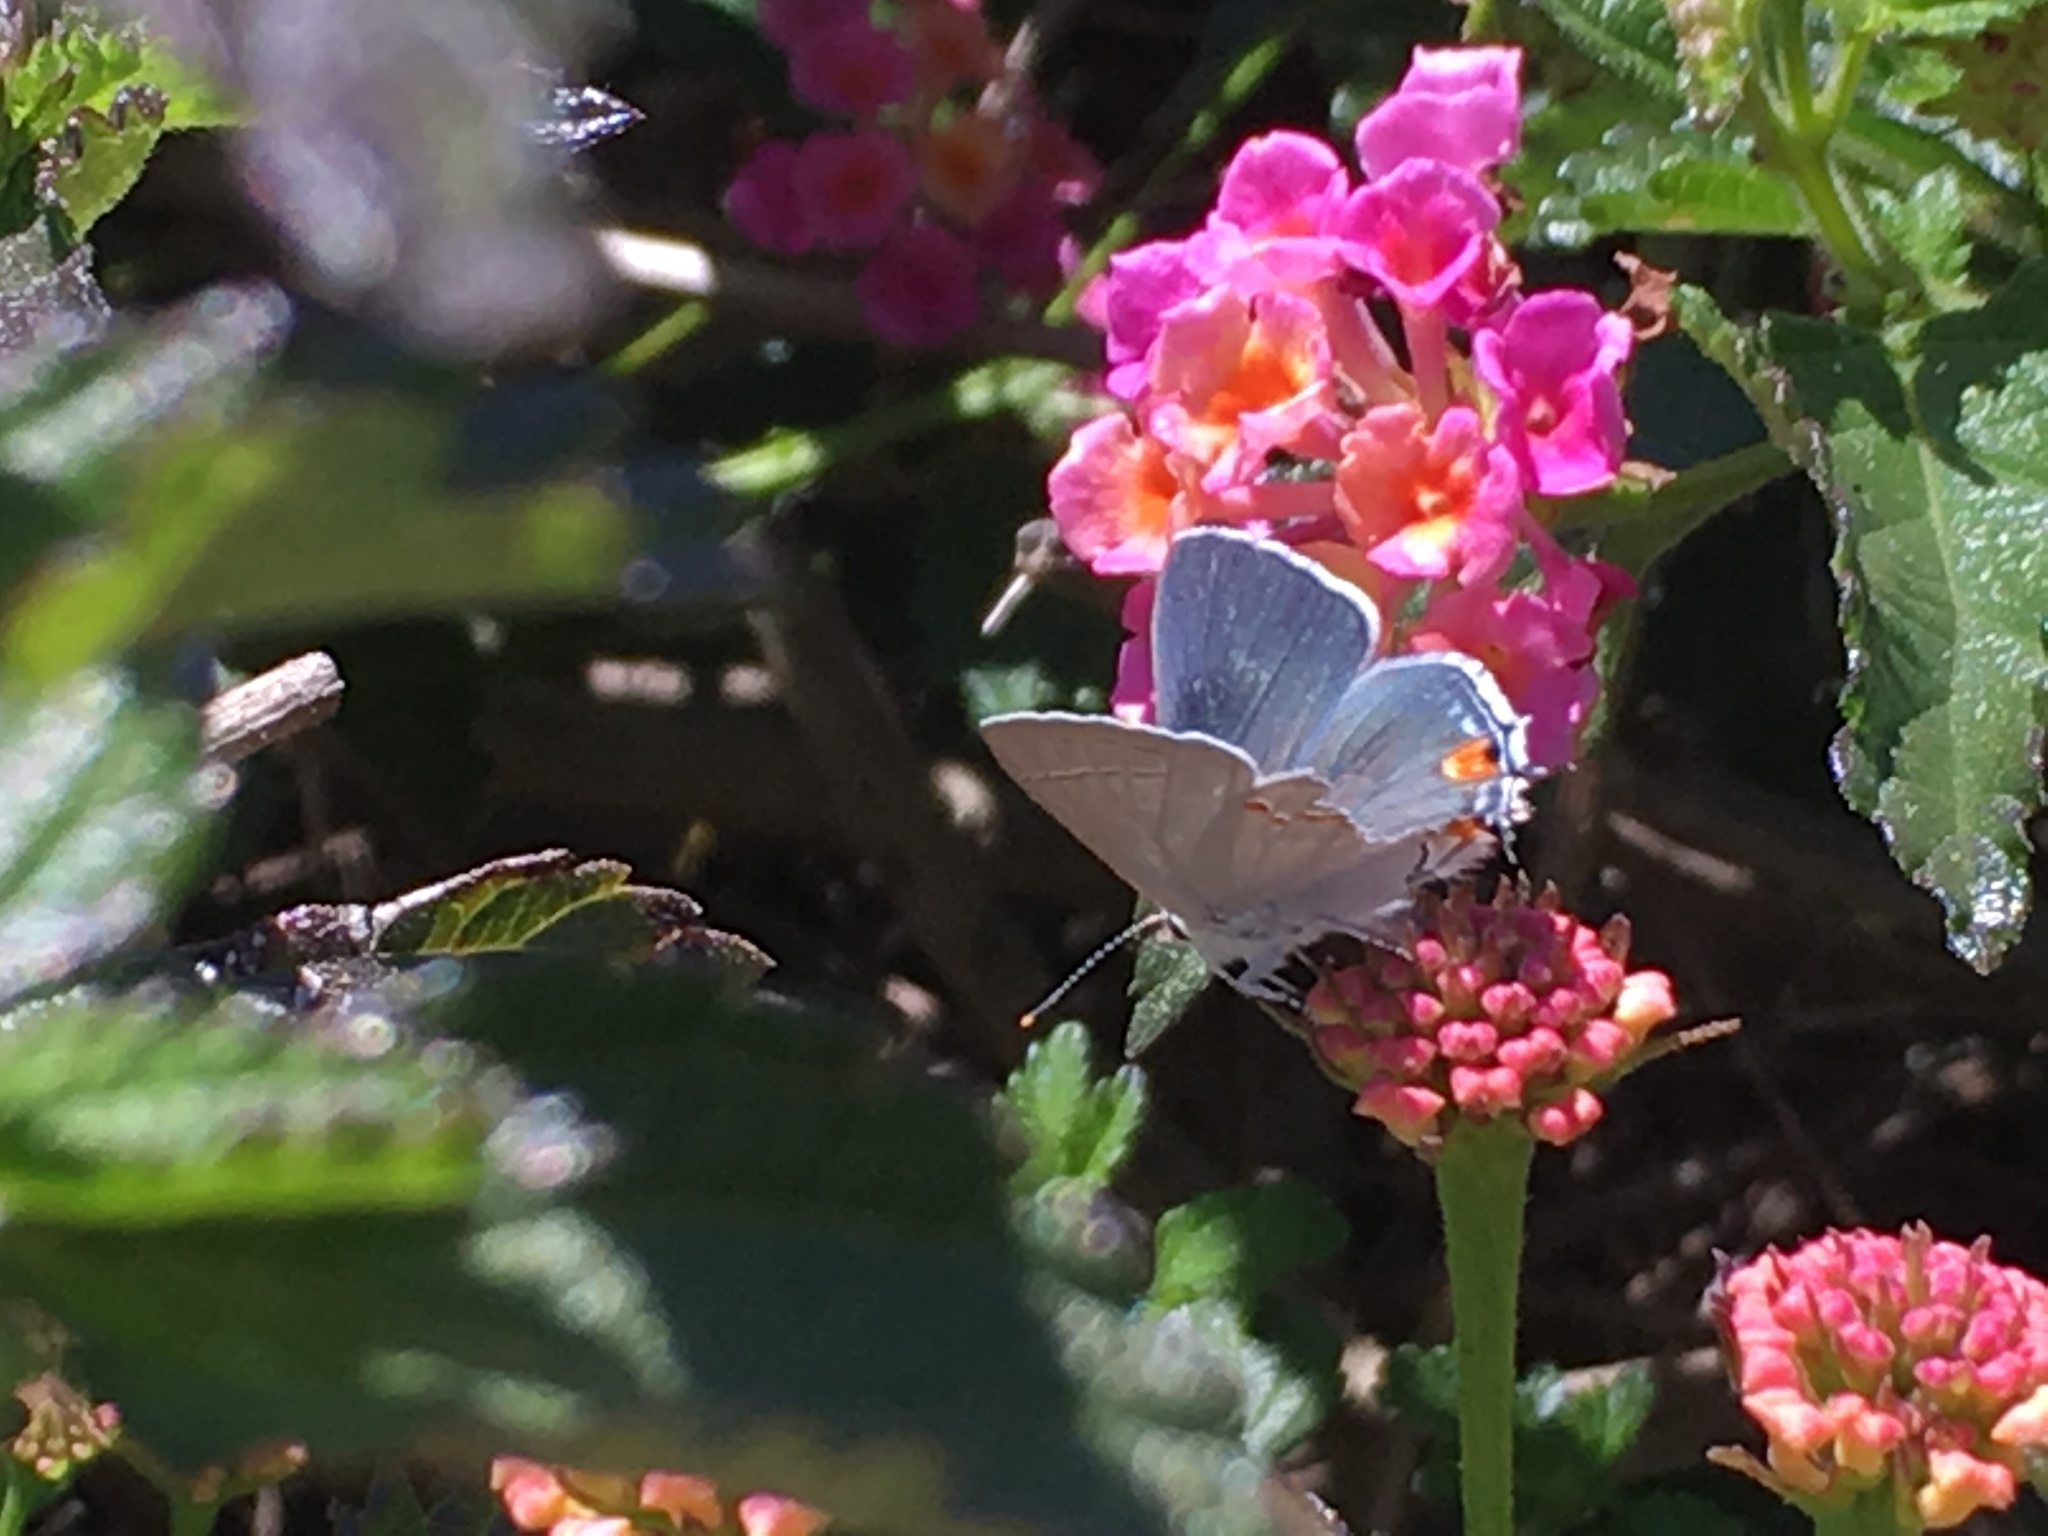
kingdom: Animalia
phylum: Arthropoda
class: Insecta
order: Lepidoptera
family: Lycaenidae
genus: Strymon
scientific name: Strymon melinus
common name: Gray hairstreak
